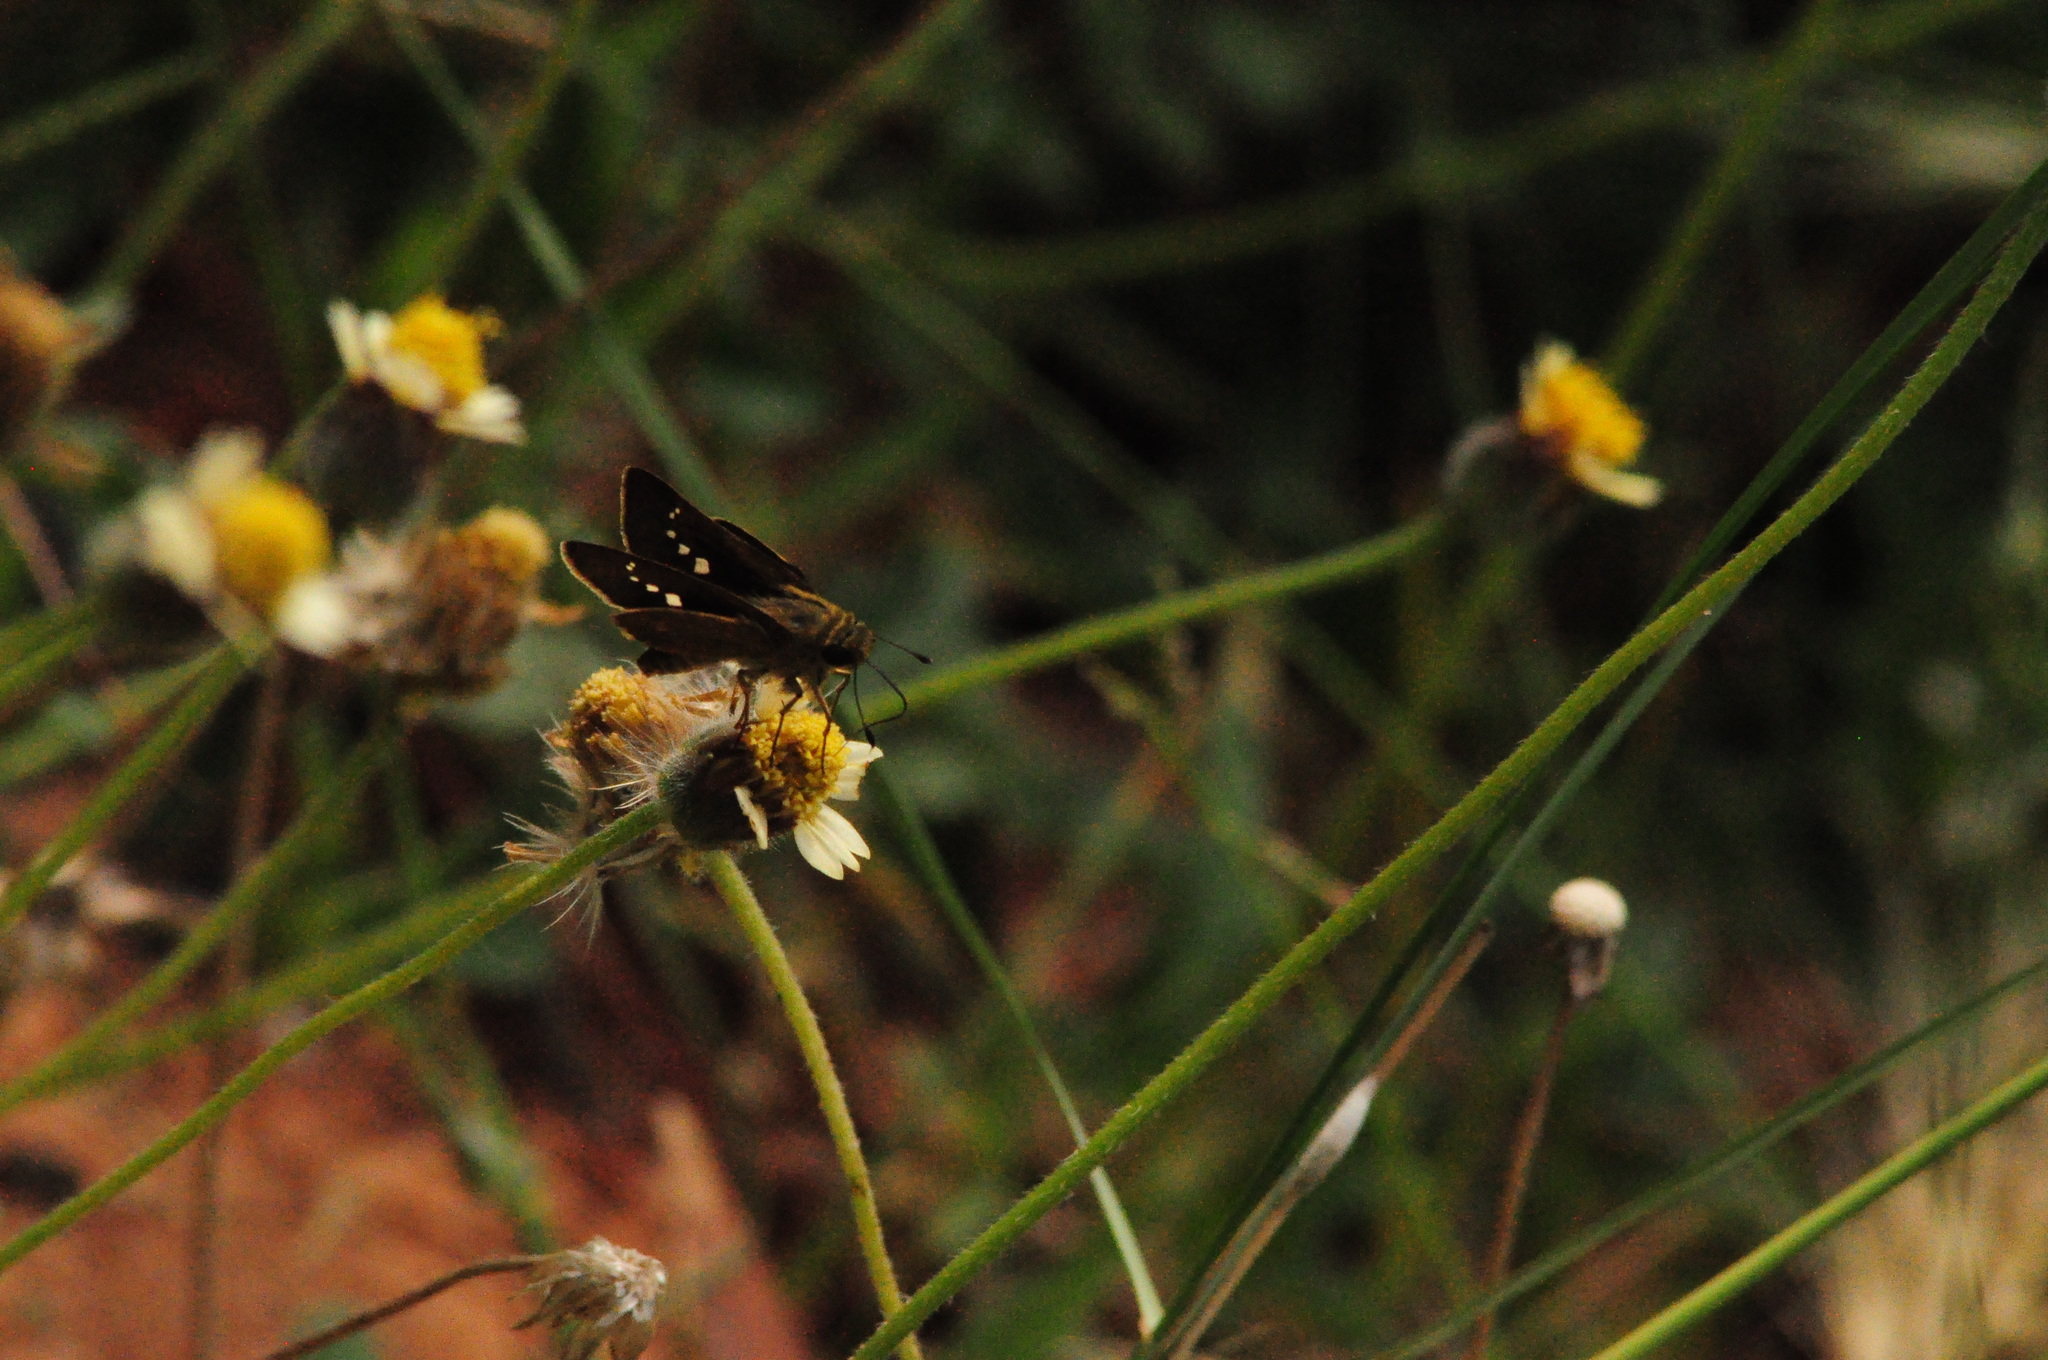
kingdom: Animalia
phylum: Arthropoda
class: Insecta
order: Lepidoptera
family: Hesperiidae
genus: Parnara
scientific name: Parnara naso
